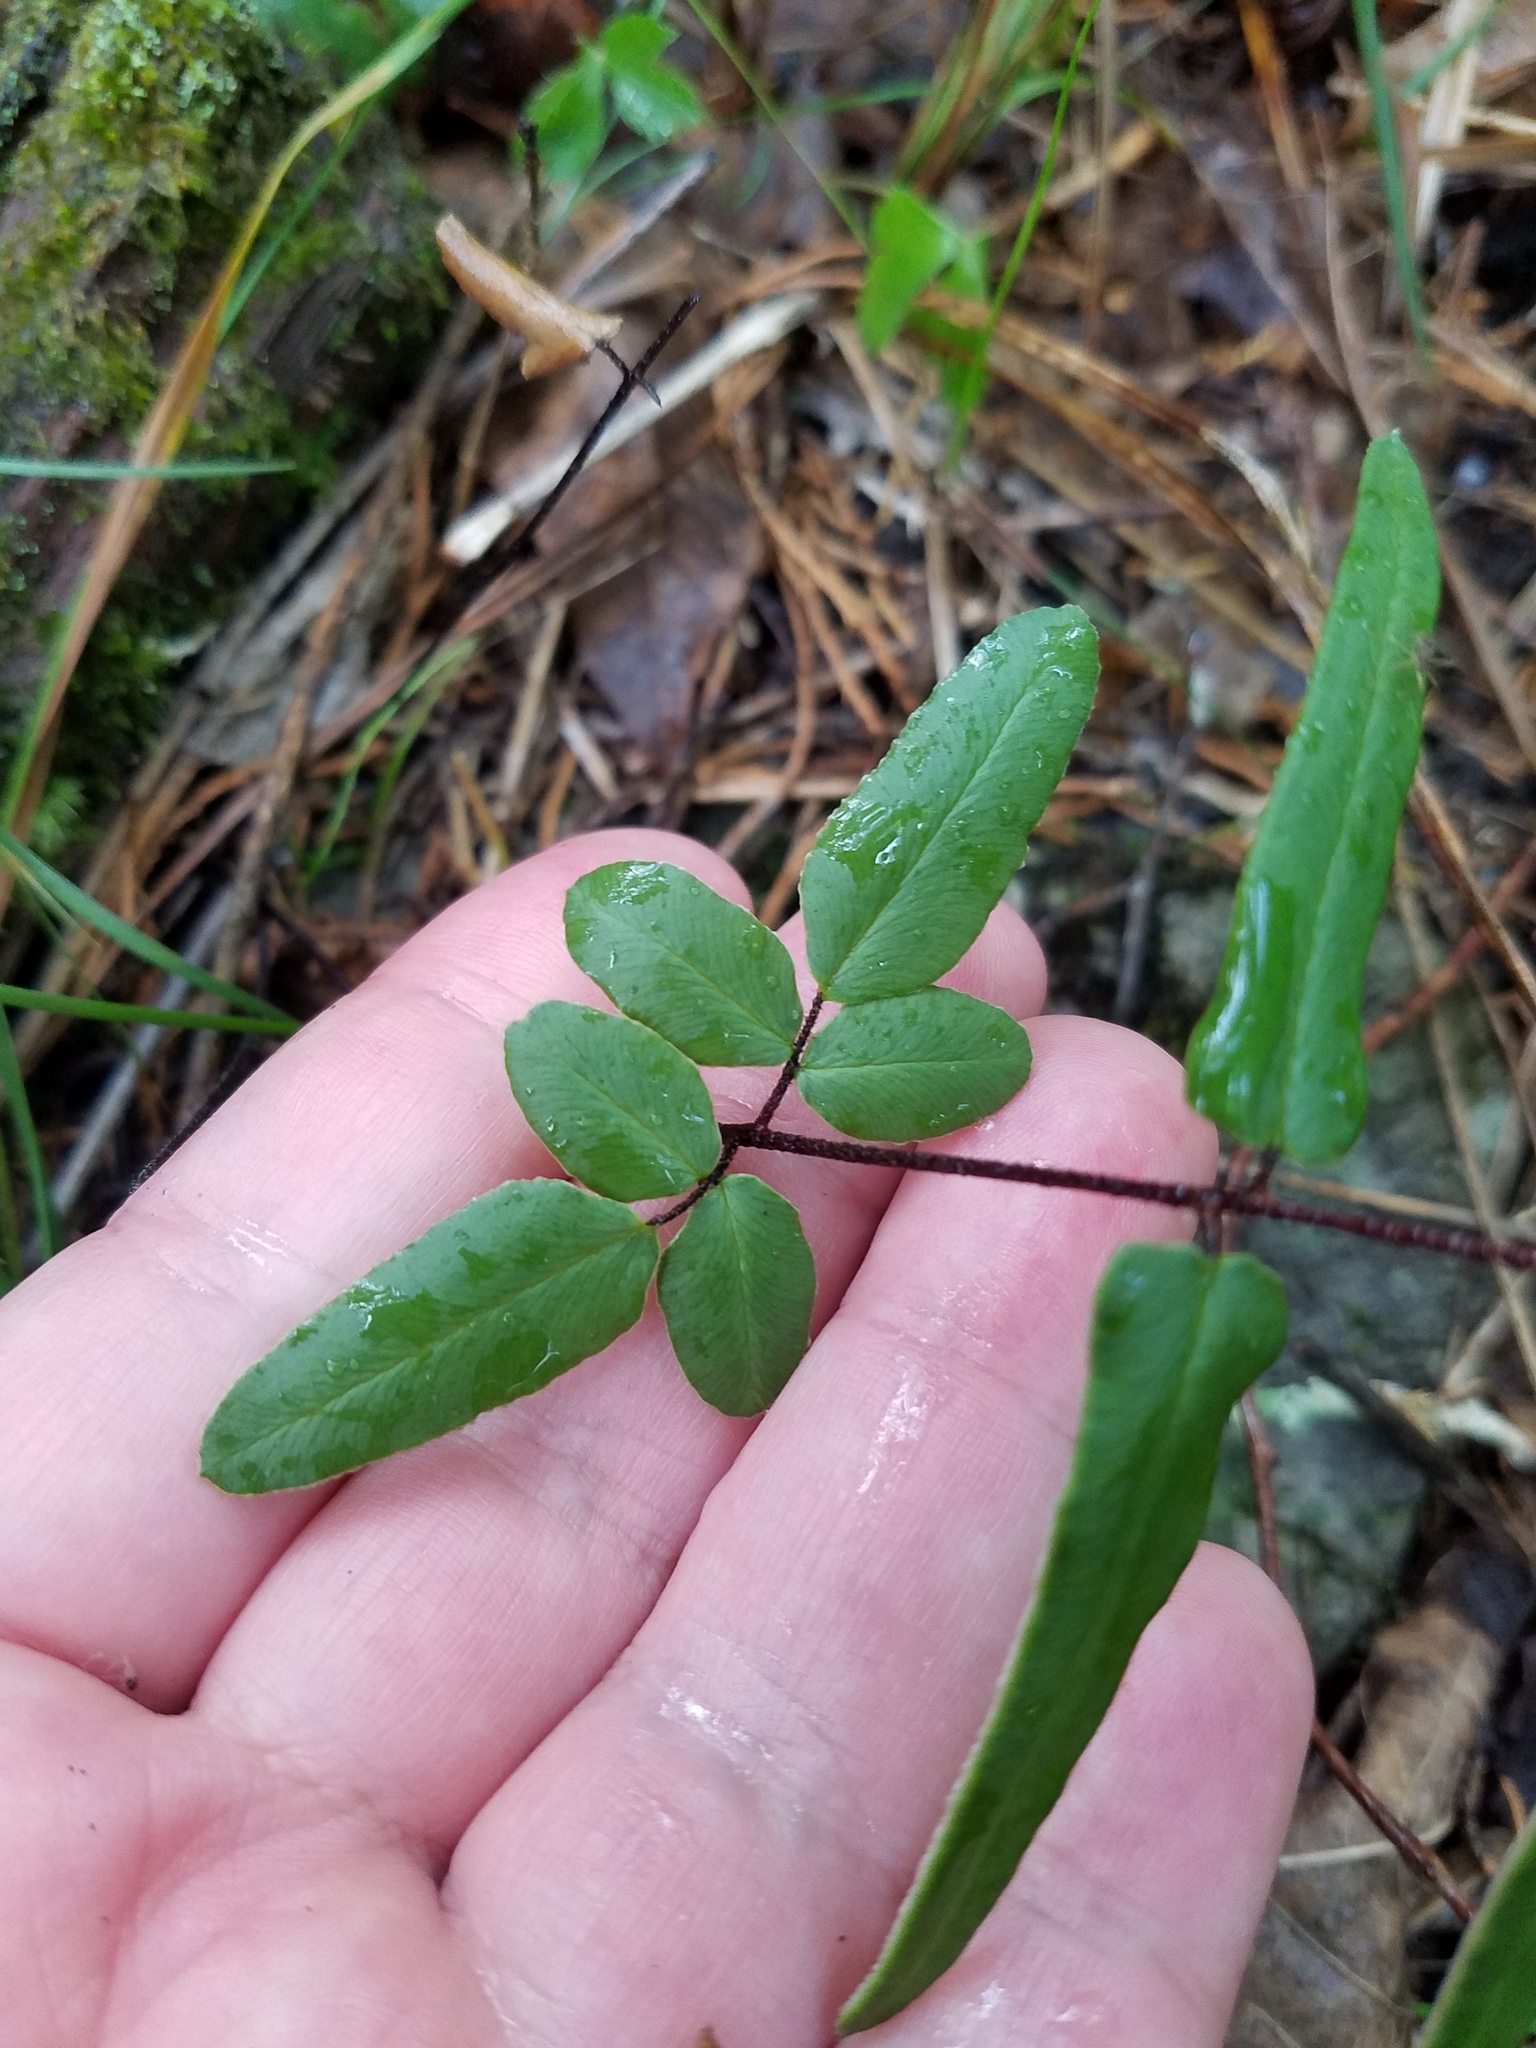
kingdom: Plantae
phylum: Tracheophyta
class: Polypodiopsida
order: Polypodiales
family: Pteridaceae
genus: Pellaea
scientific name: Pellaea atropurpurea
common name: Hairy cliffbrake
